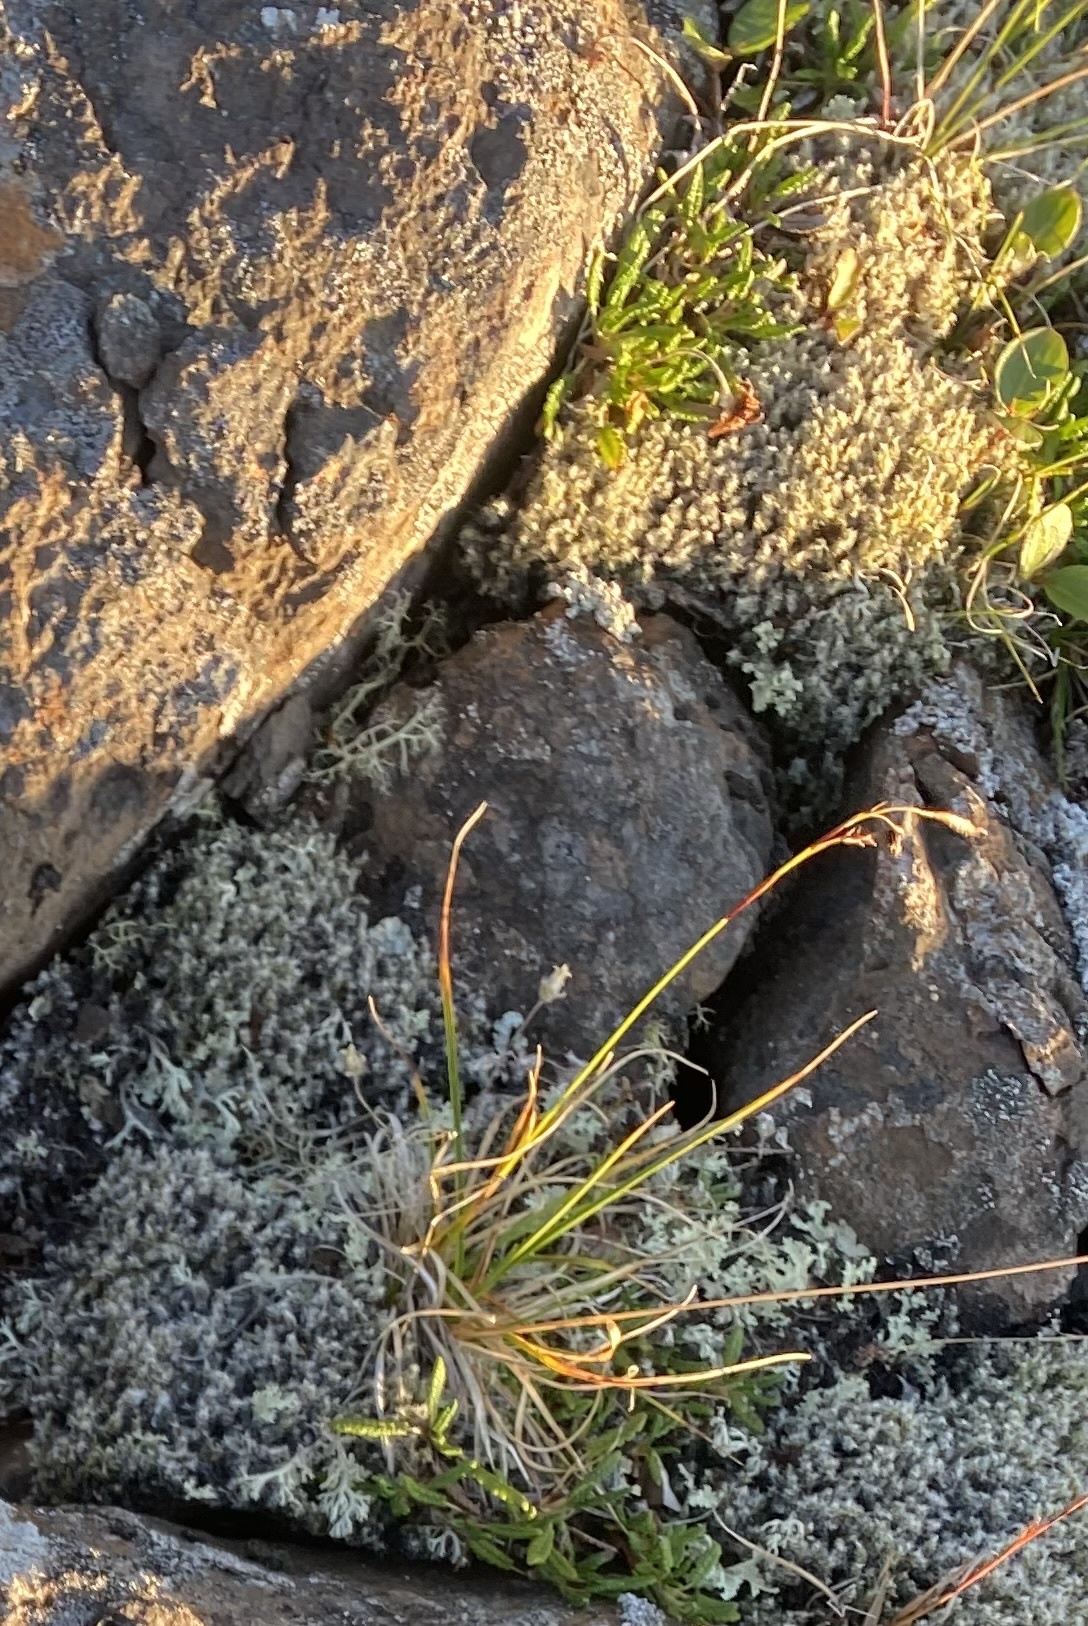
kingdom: Plantae
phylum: Tracheophyta
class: Liliopsida
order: Poales
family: Cyperaceae
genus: Carex
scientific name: Carex fuliginosa
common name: Few-flowered sedge
